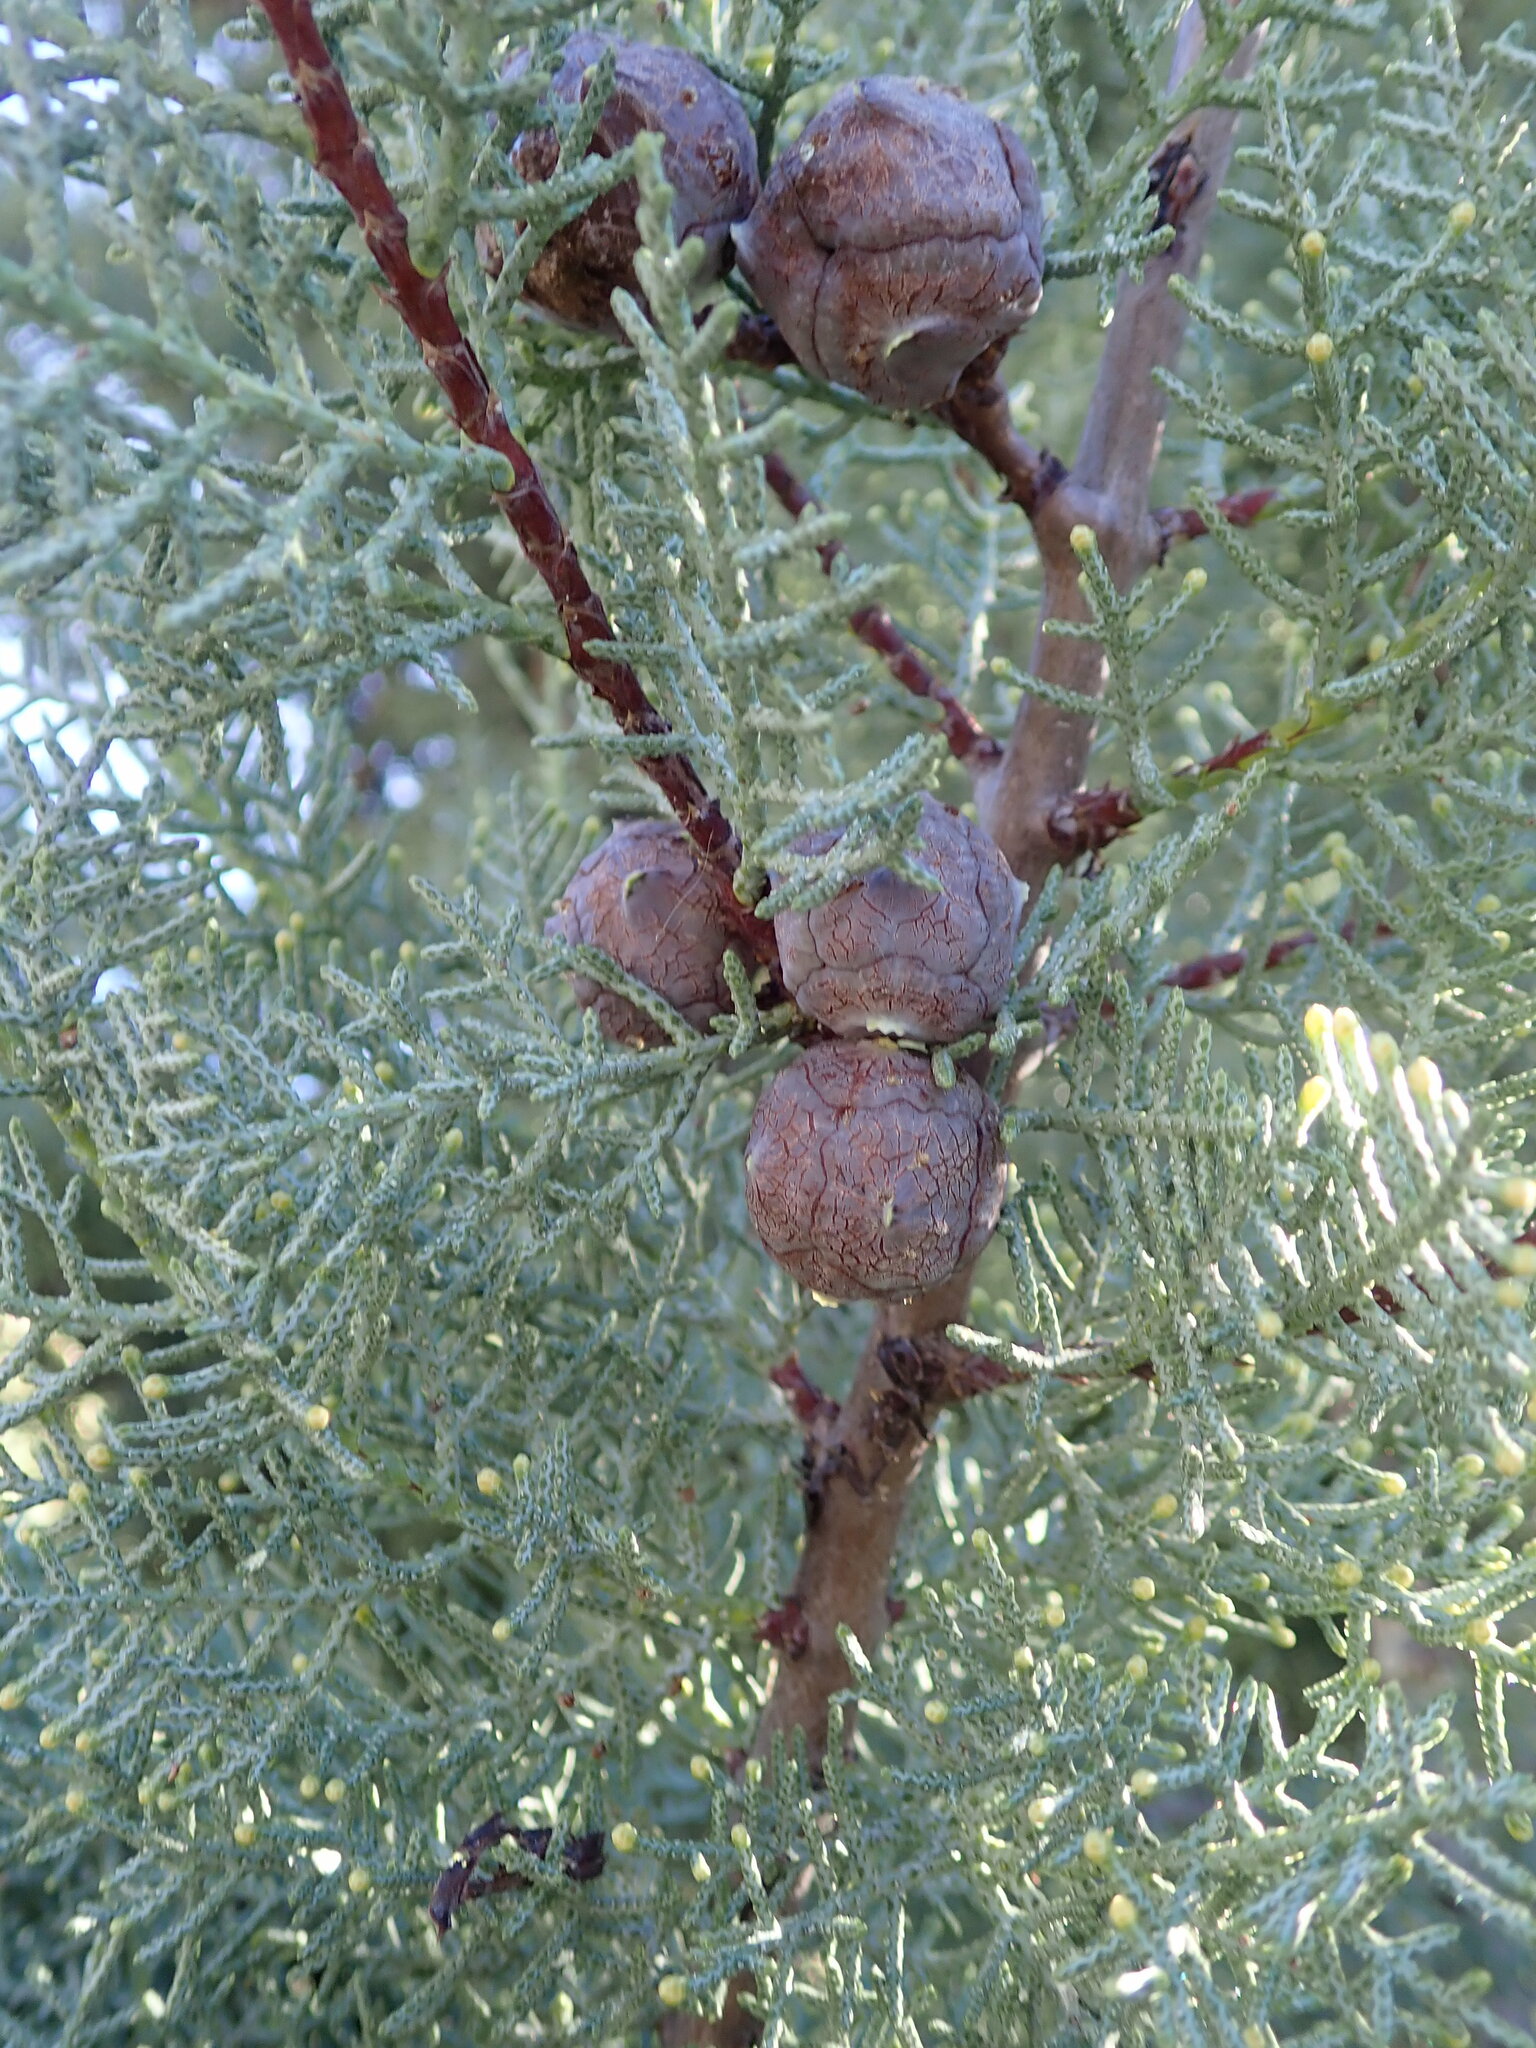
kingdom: Plantae
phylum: Tracheophyta
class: Pinopsida
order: Pinales
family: Cupressaceae
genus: Cupressus
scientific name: Cupressus arizonica
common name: Arizona cypress
